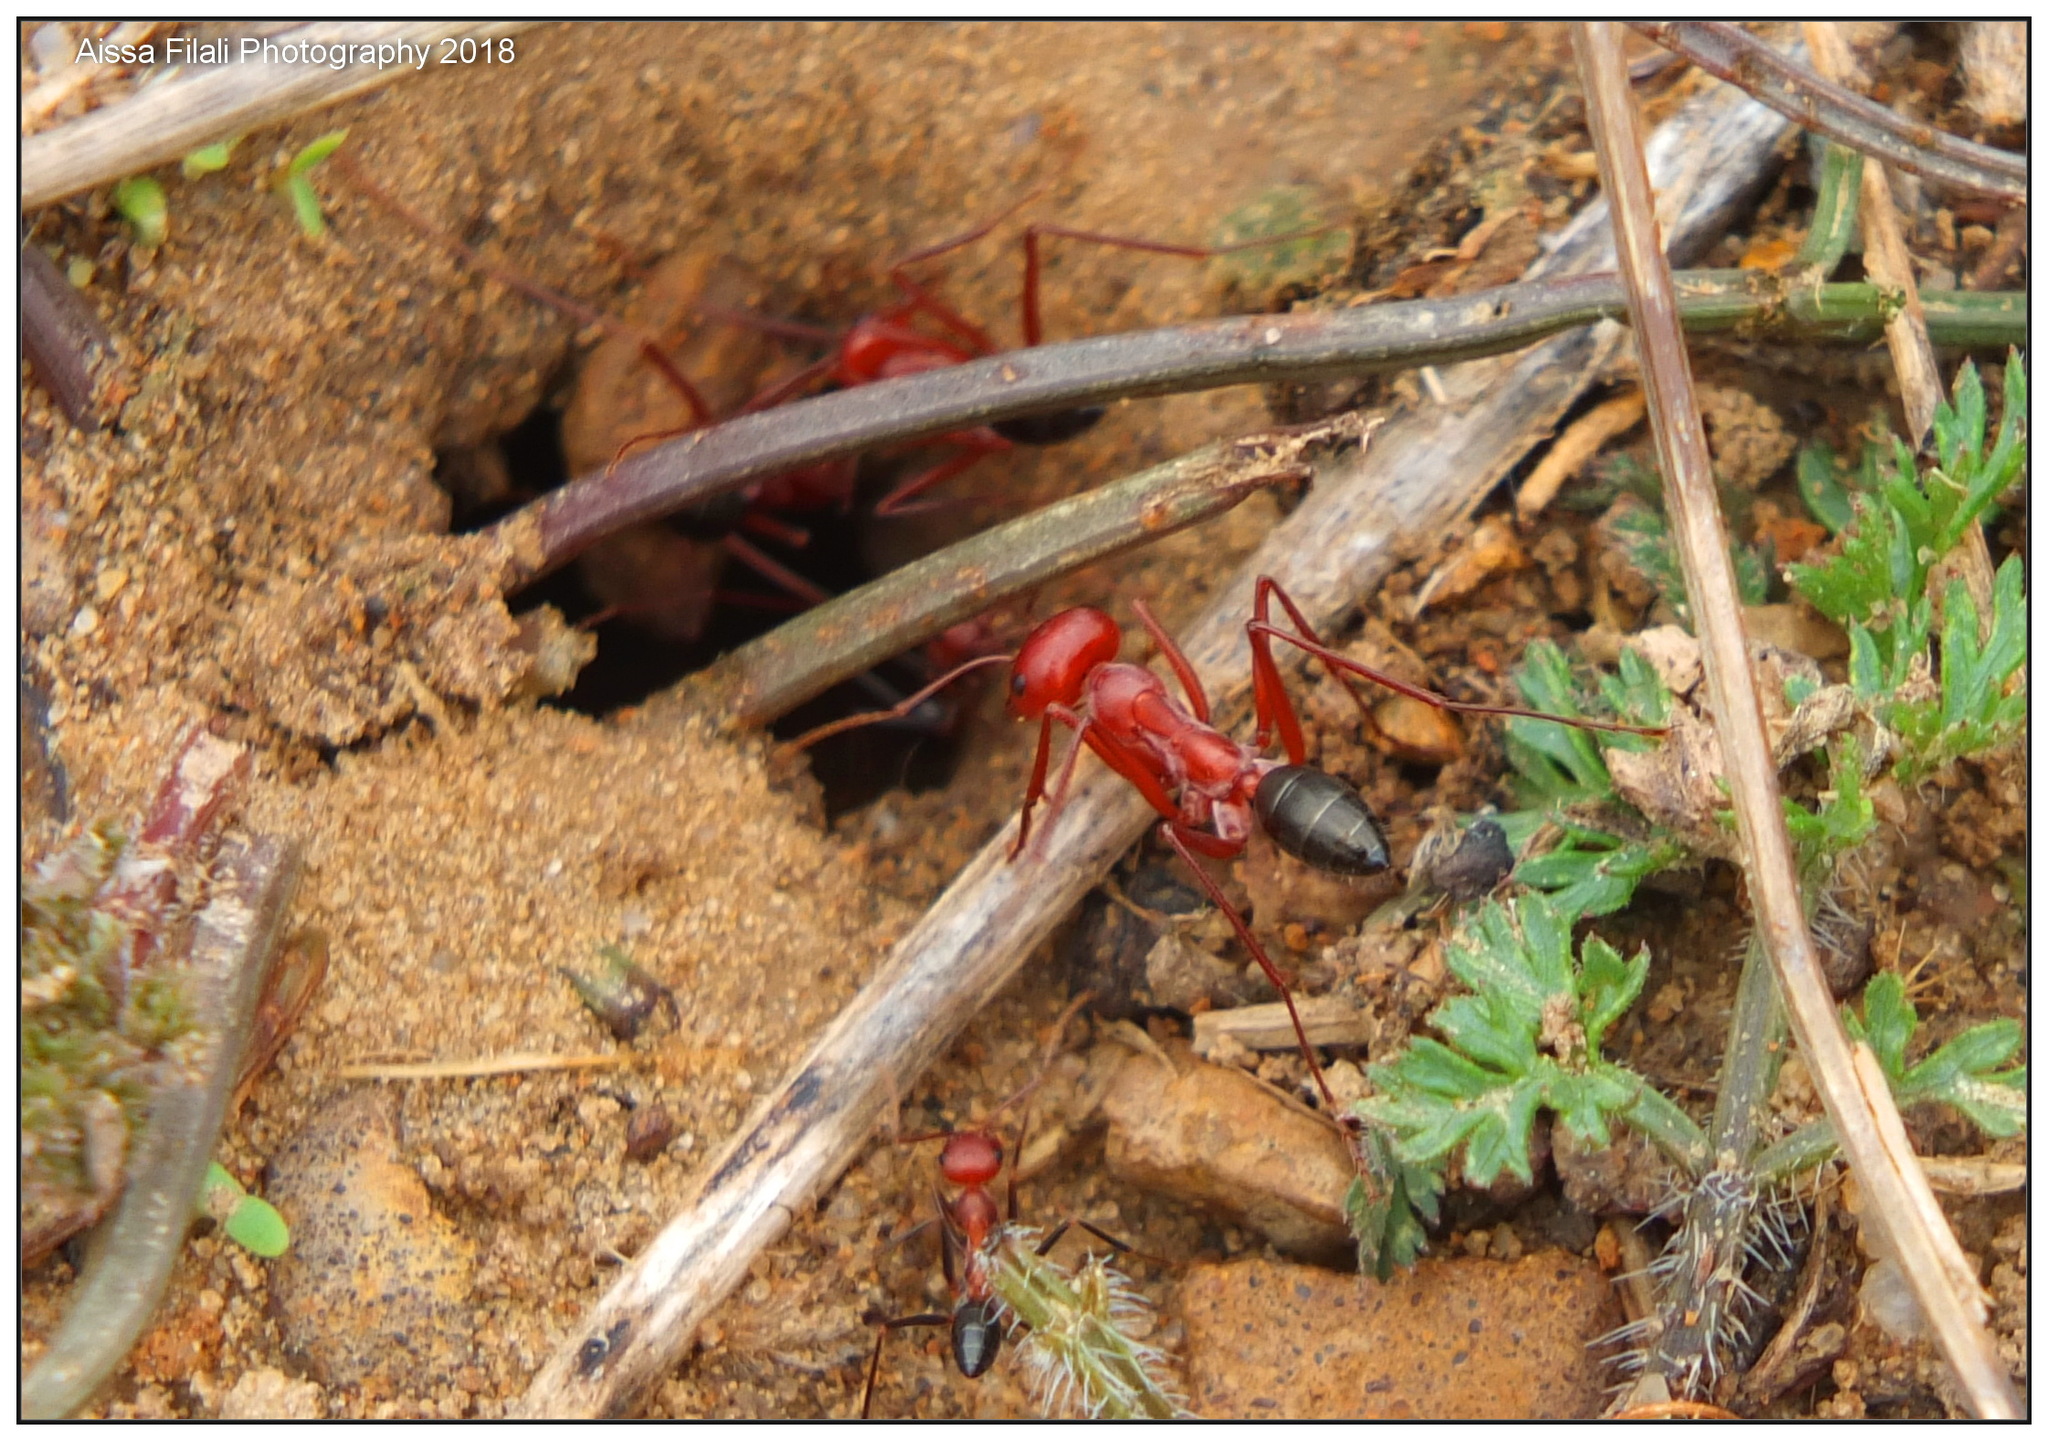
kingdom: Animalia
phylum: Arthropoda
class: Insecta
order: Hymenoptera
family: Formicidae
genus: Cataglyphis
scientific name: Cataglyphis bicolor
